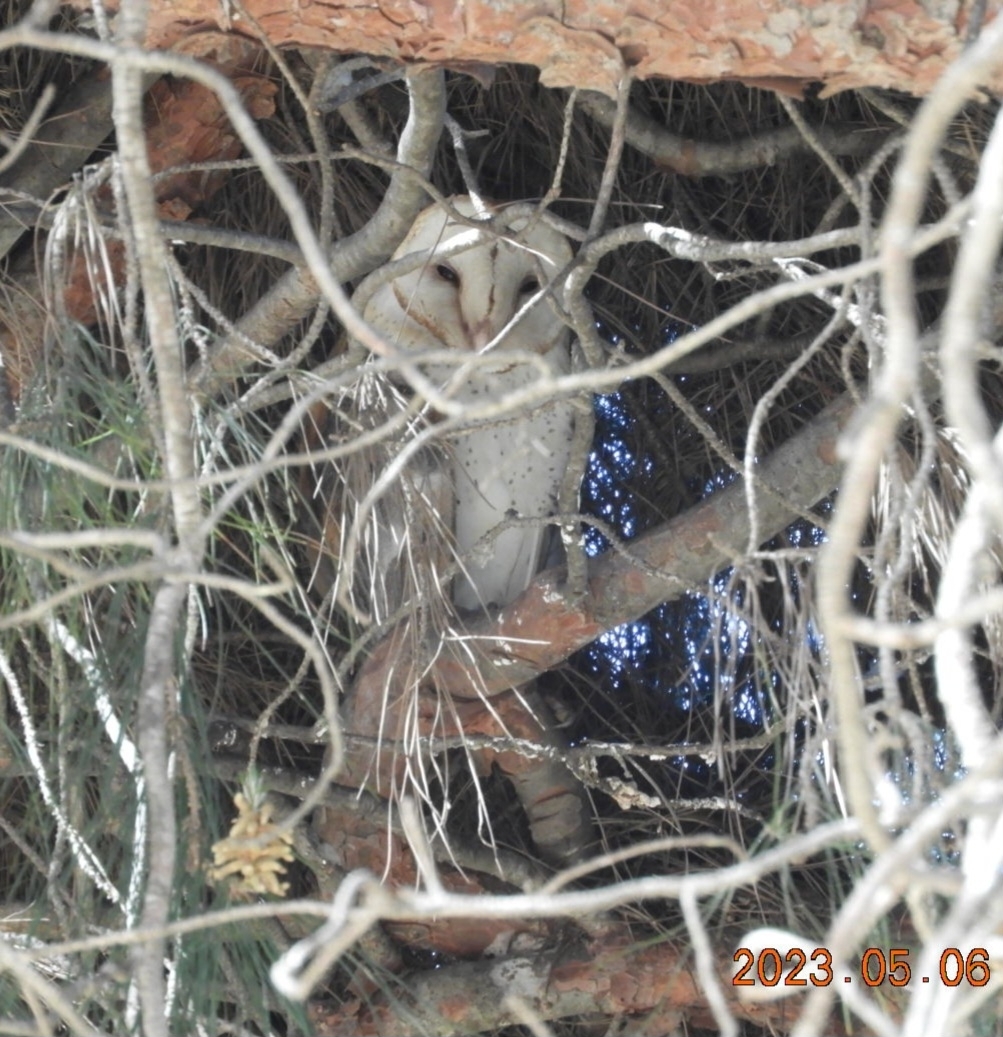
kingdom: Animalia
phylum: Chordata
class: Aves
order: Strigiformes
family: Tytonidae
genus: Tyto
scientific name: Tyto alba
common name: Barn owl
